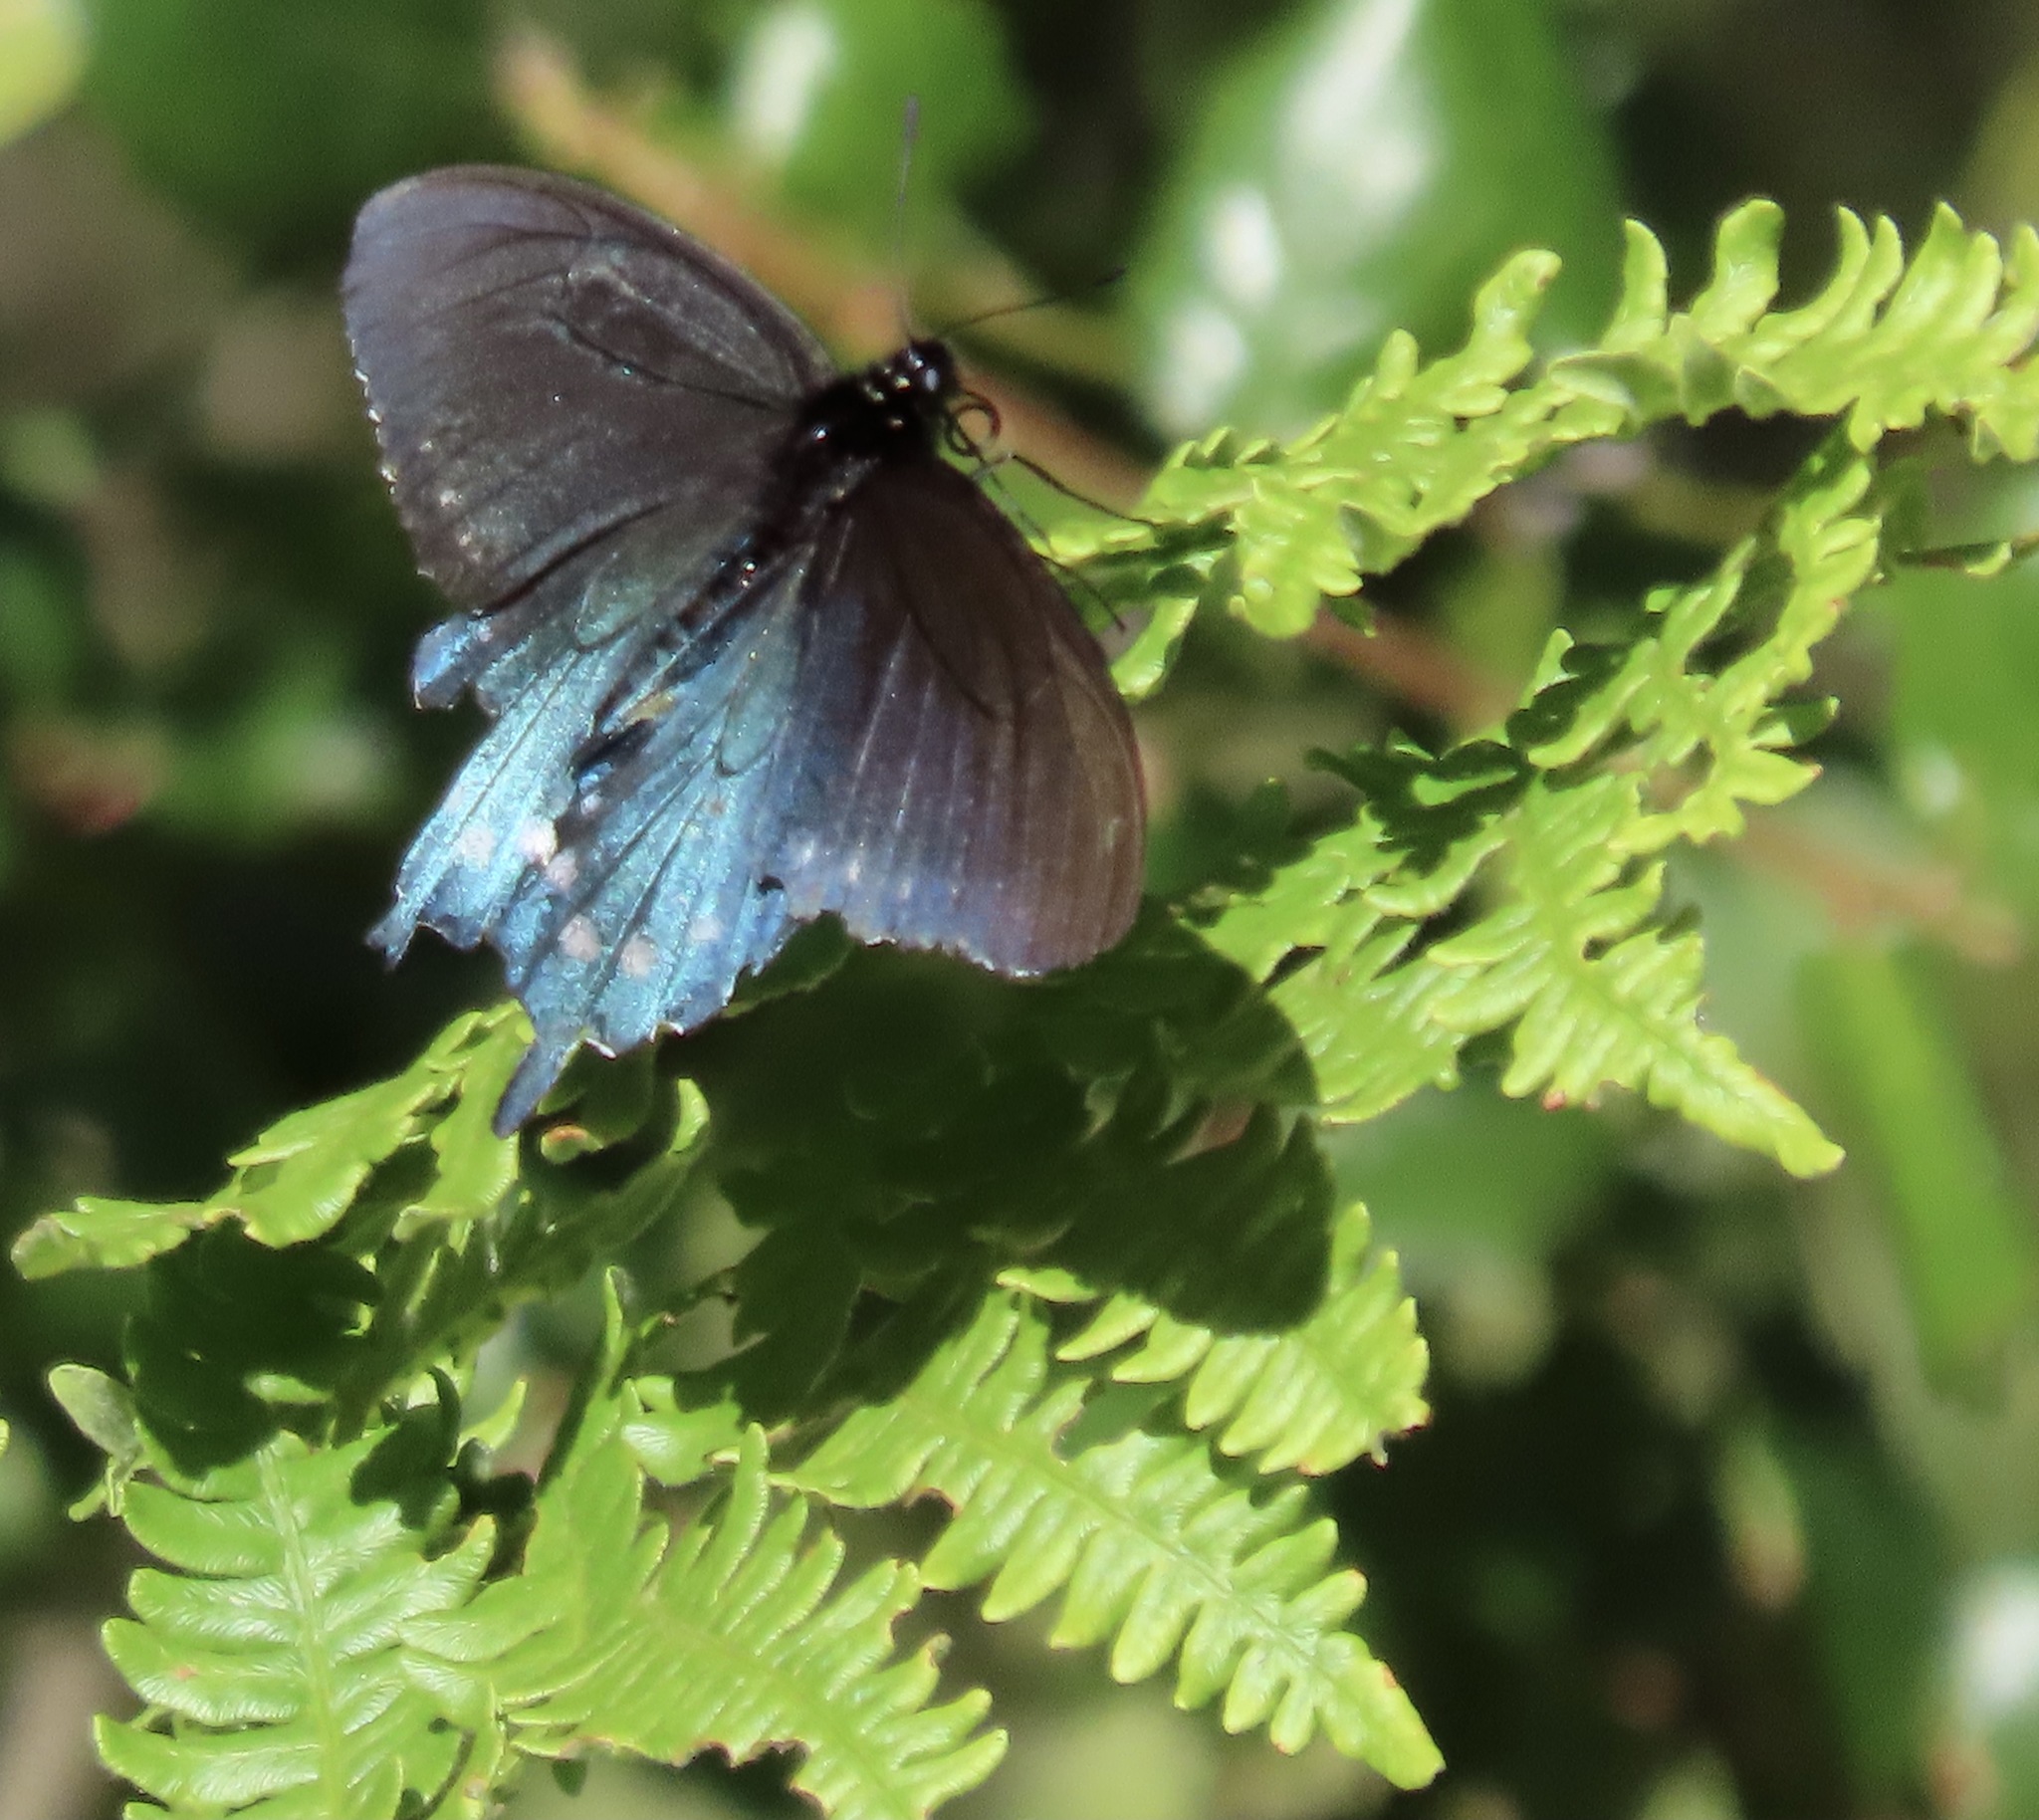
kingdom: Animalia
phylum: Arthropoda
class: Insecta
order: Lepidoptera
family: Papilionidae
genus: Battus
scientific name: Battus philenor
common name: Pipevine swallowtail
